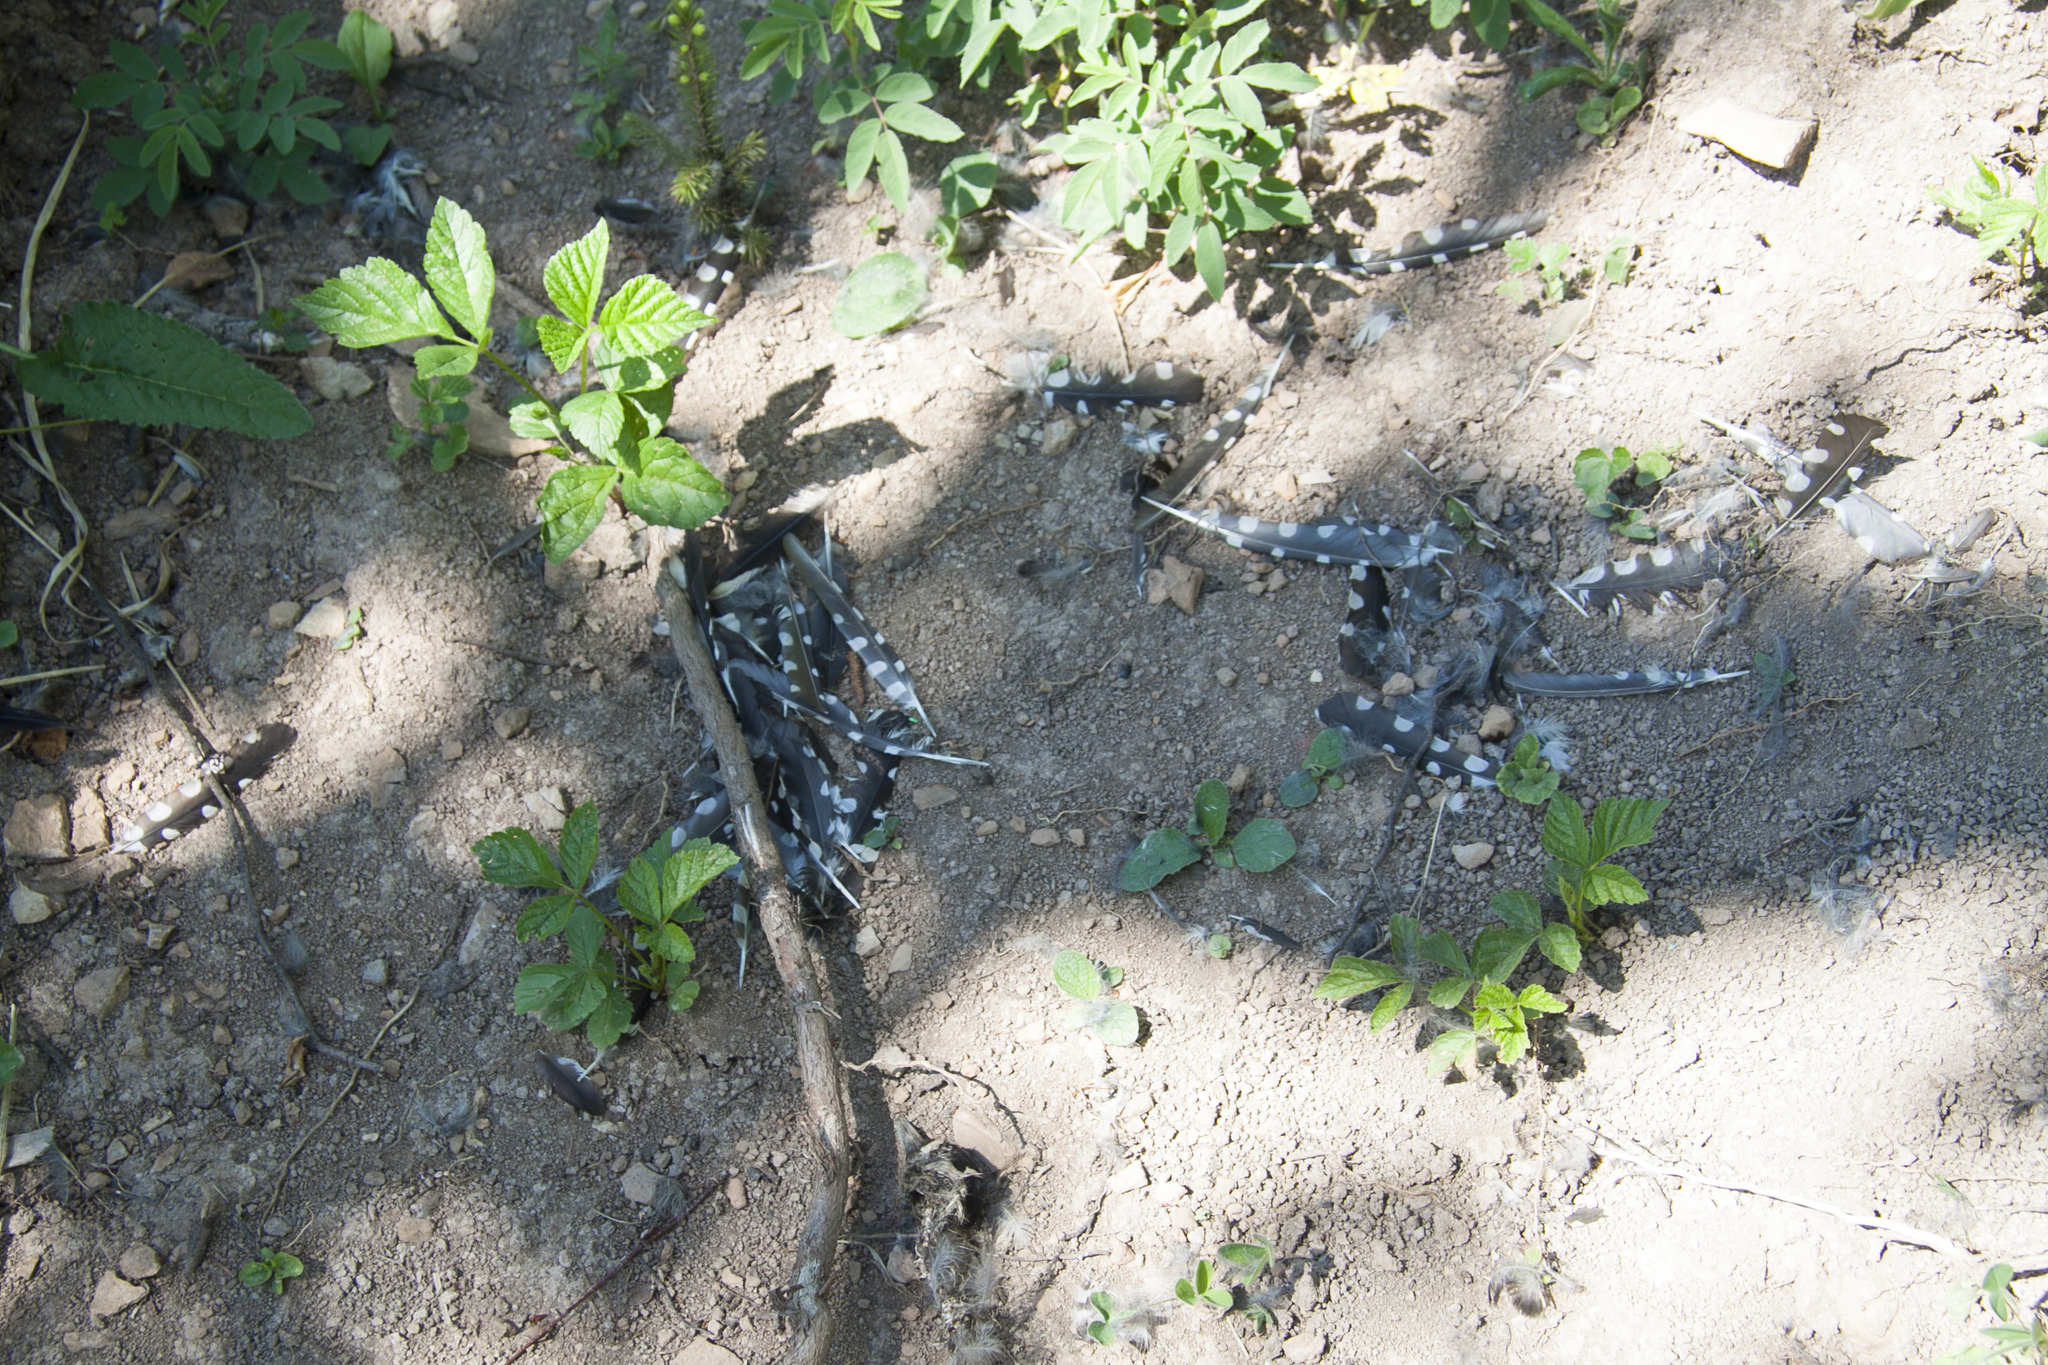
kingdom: Animalia
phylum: Chordata
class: Aves
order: Piciformes
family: Picidae
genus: Dendrocopos
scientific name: Dendrocopos major
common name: Great spotted woodpecker
